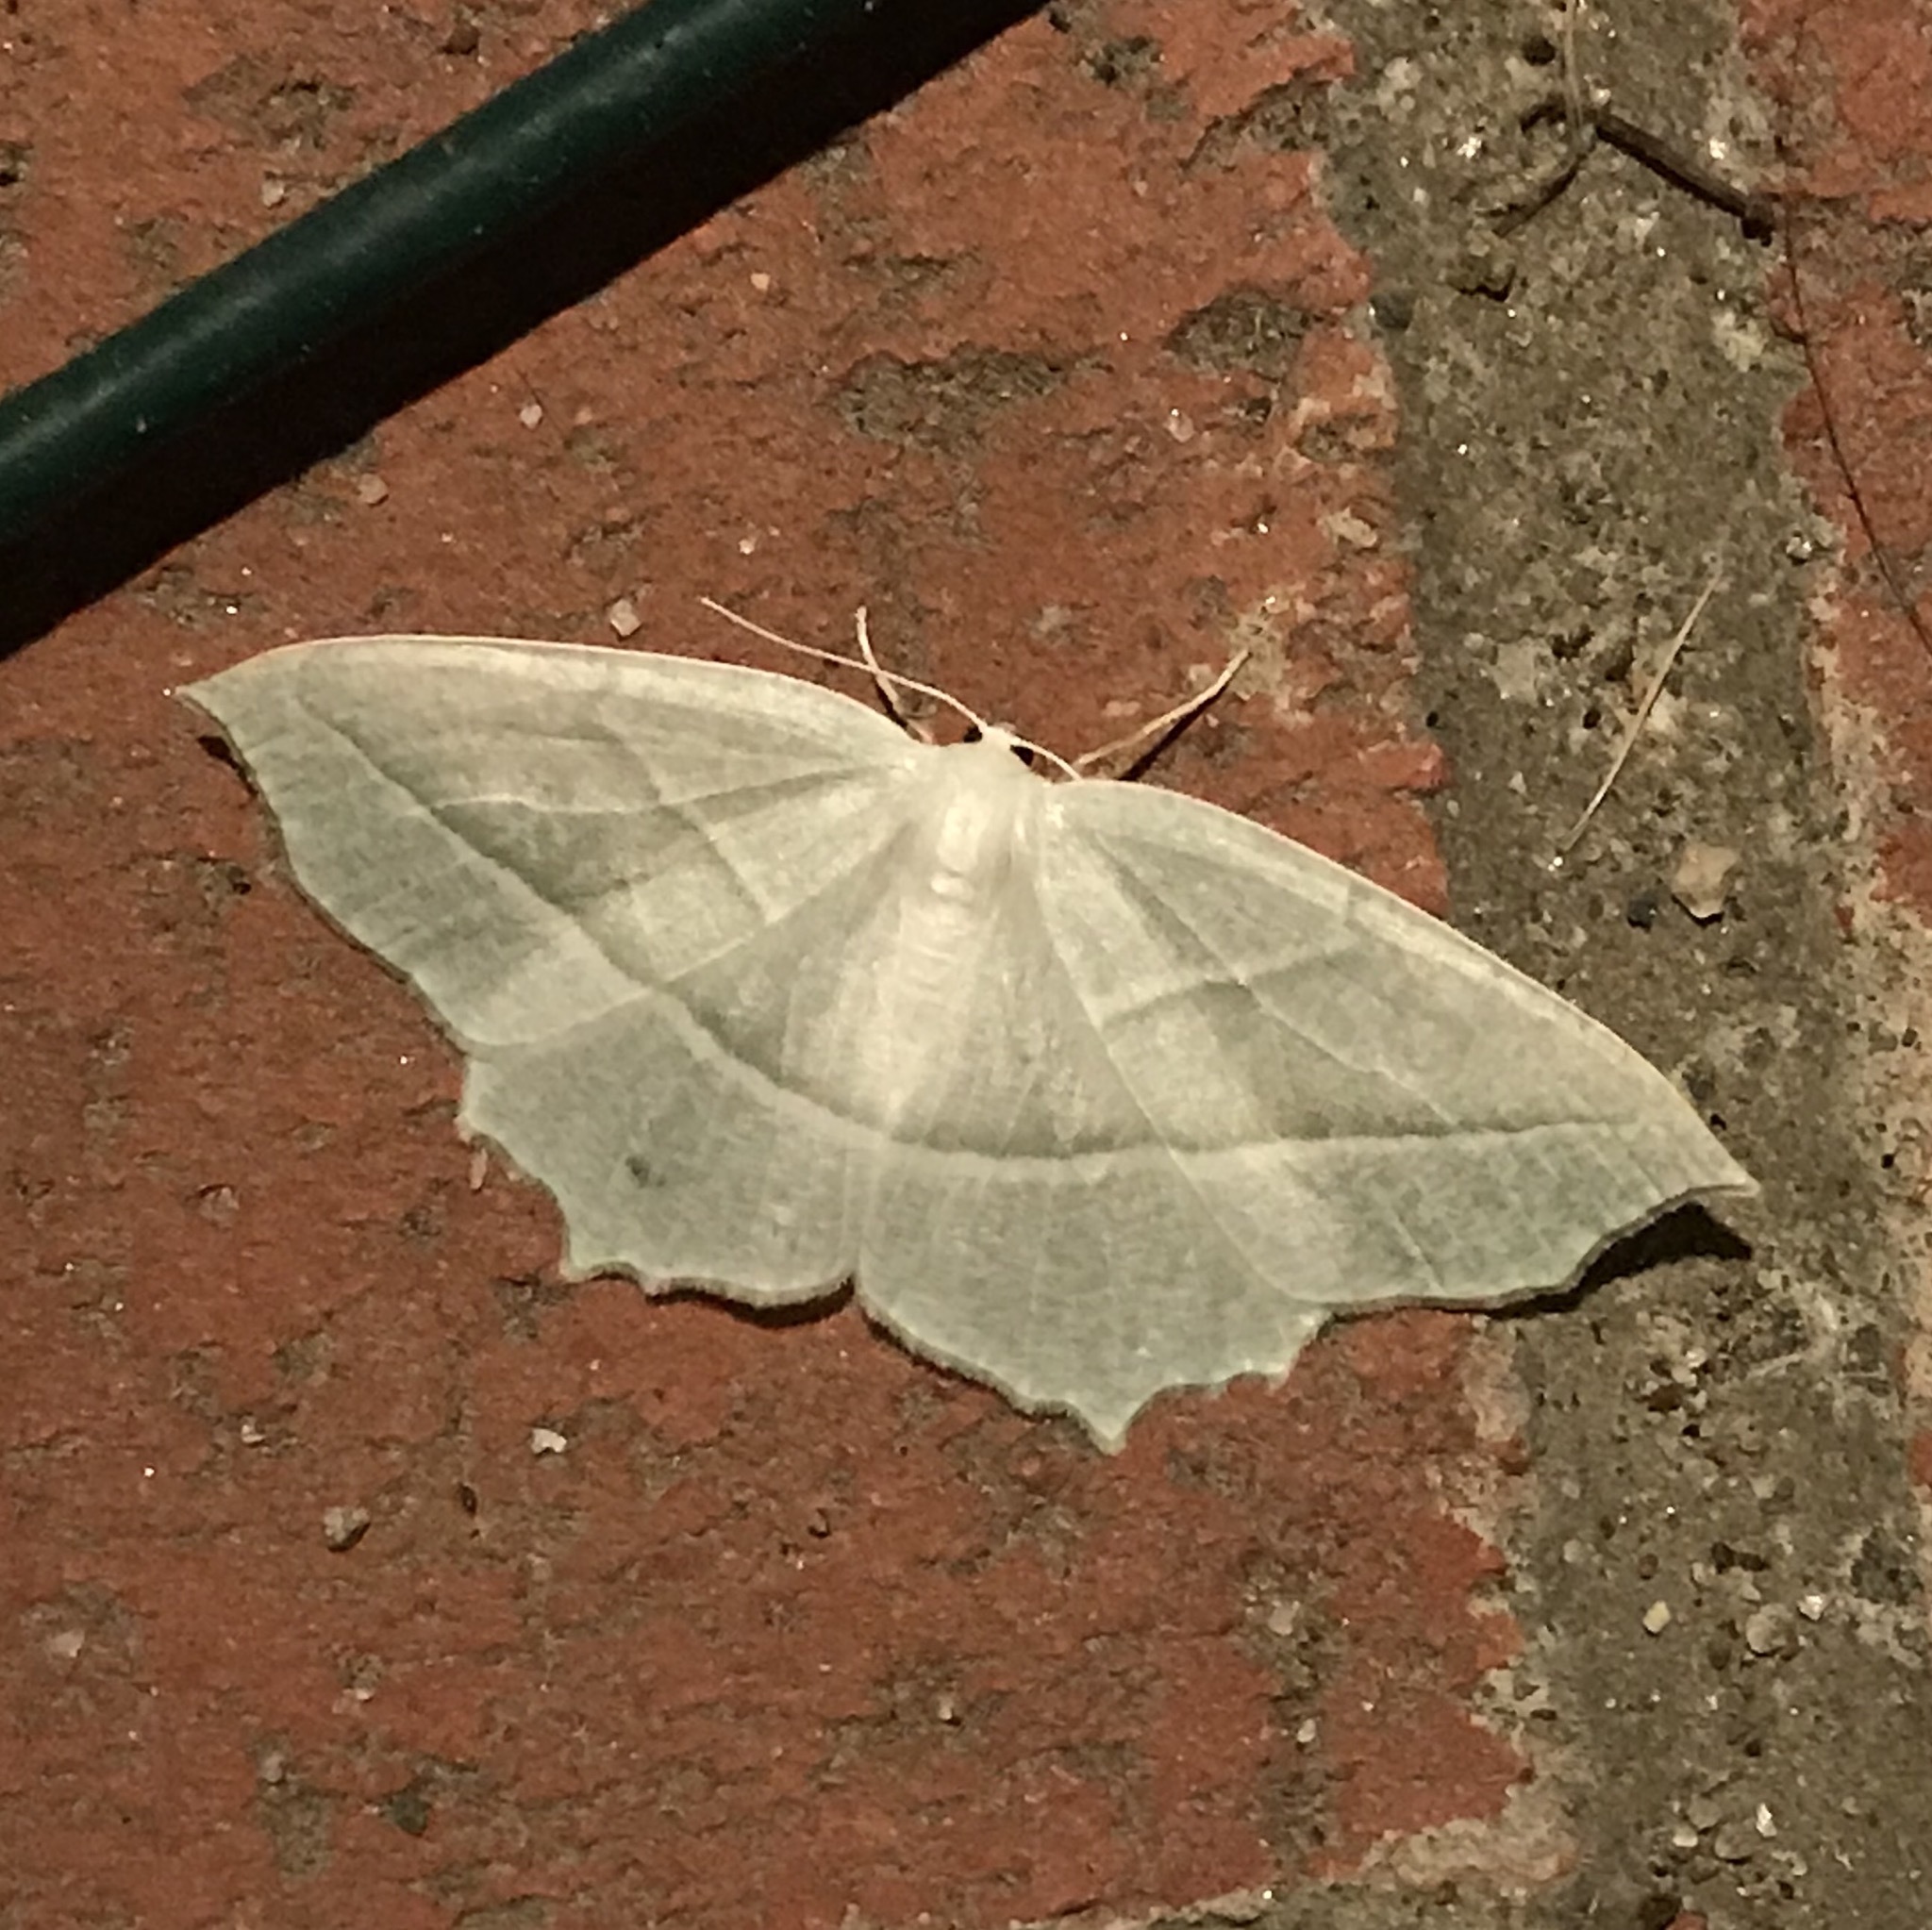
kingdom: Animalia
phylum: Arthropoda
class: Insecta
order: Lepidoptera
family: Geometridae
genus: Campaea
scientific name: Campaea perlata
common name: Fringed looper
